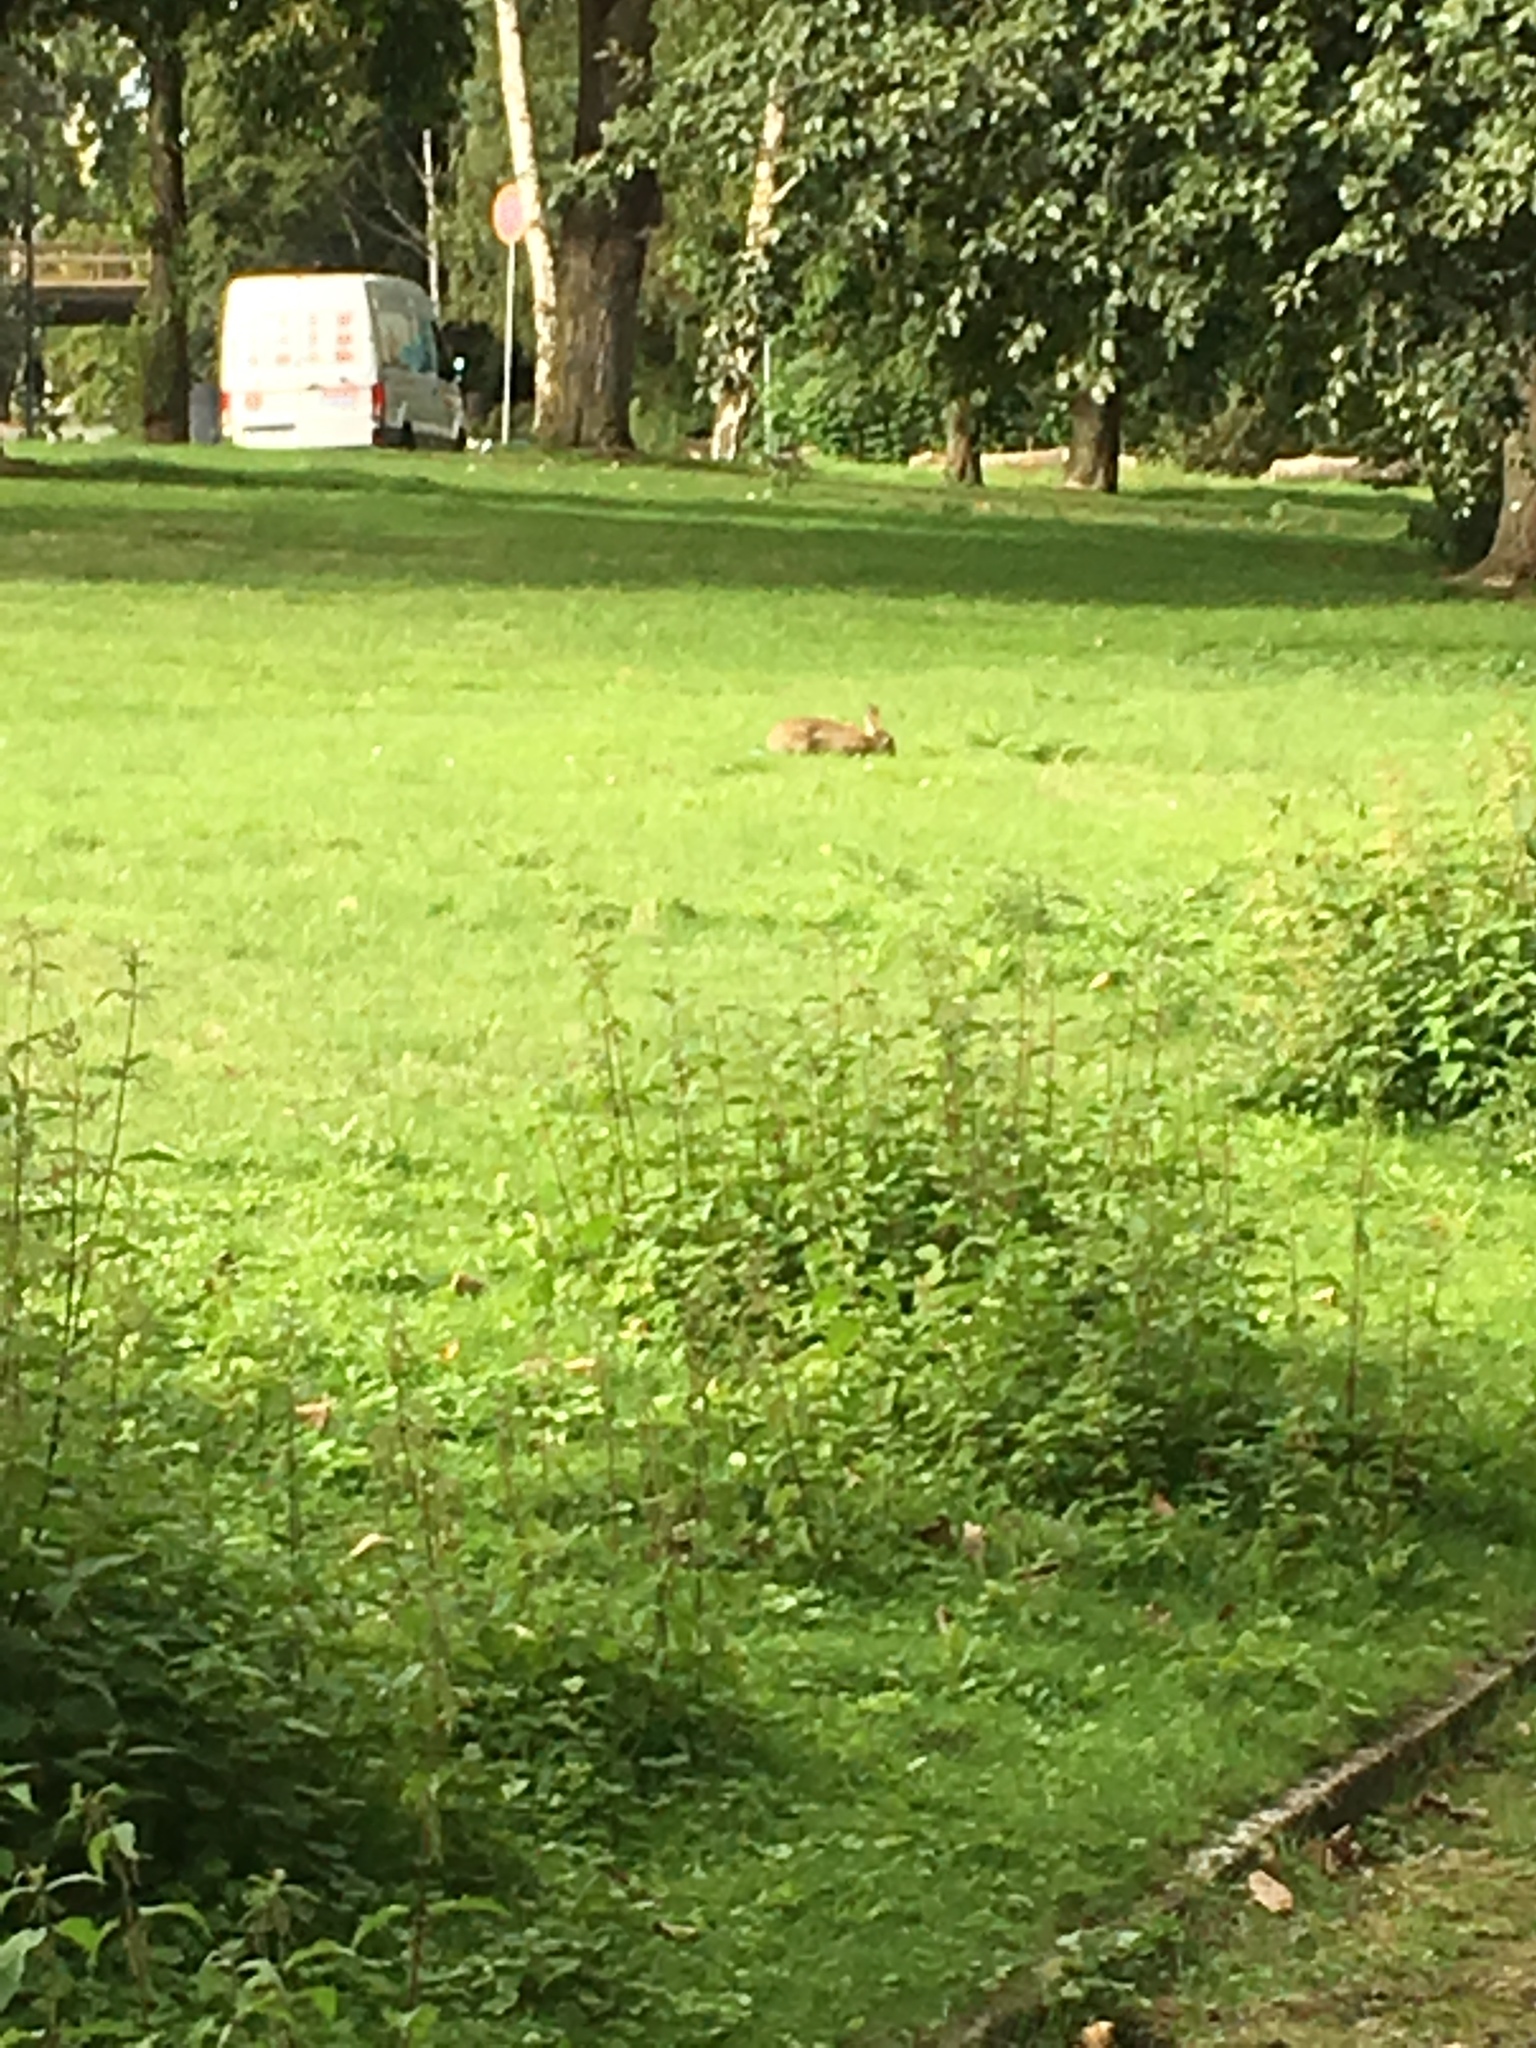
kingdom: Animalia
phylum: Chordata
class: Mammalia
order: Lagomorpha
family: Leporidae
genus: Oryctolagus
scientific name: Oryctolagus cuniculus
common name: European rabbit
